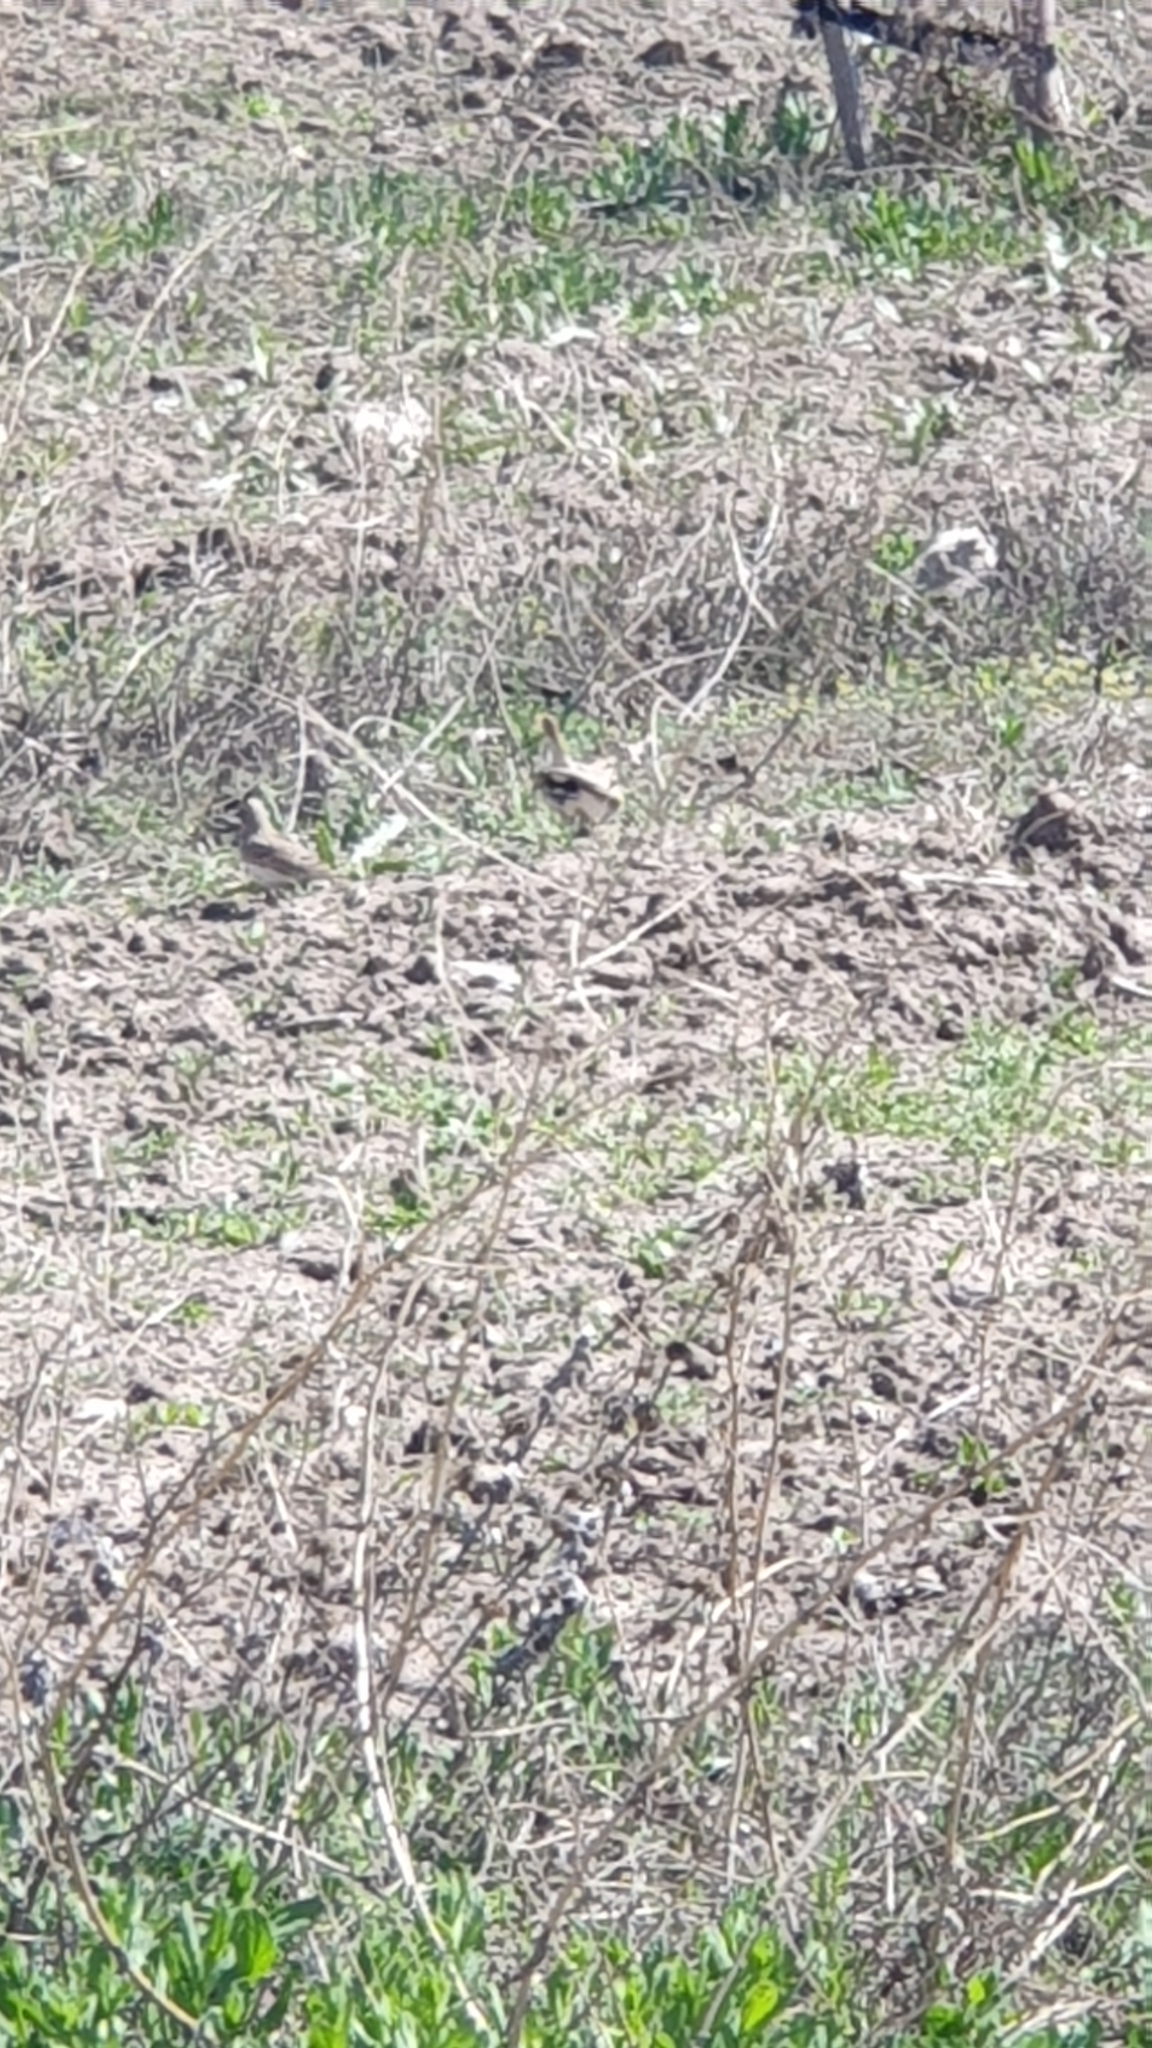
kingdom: Animalia
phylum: Chordata
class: Aves
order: Passeriformes
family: Alaudidae
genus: Galerida
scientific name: Galerida cristata
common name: Crested lark
